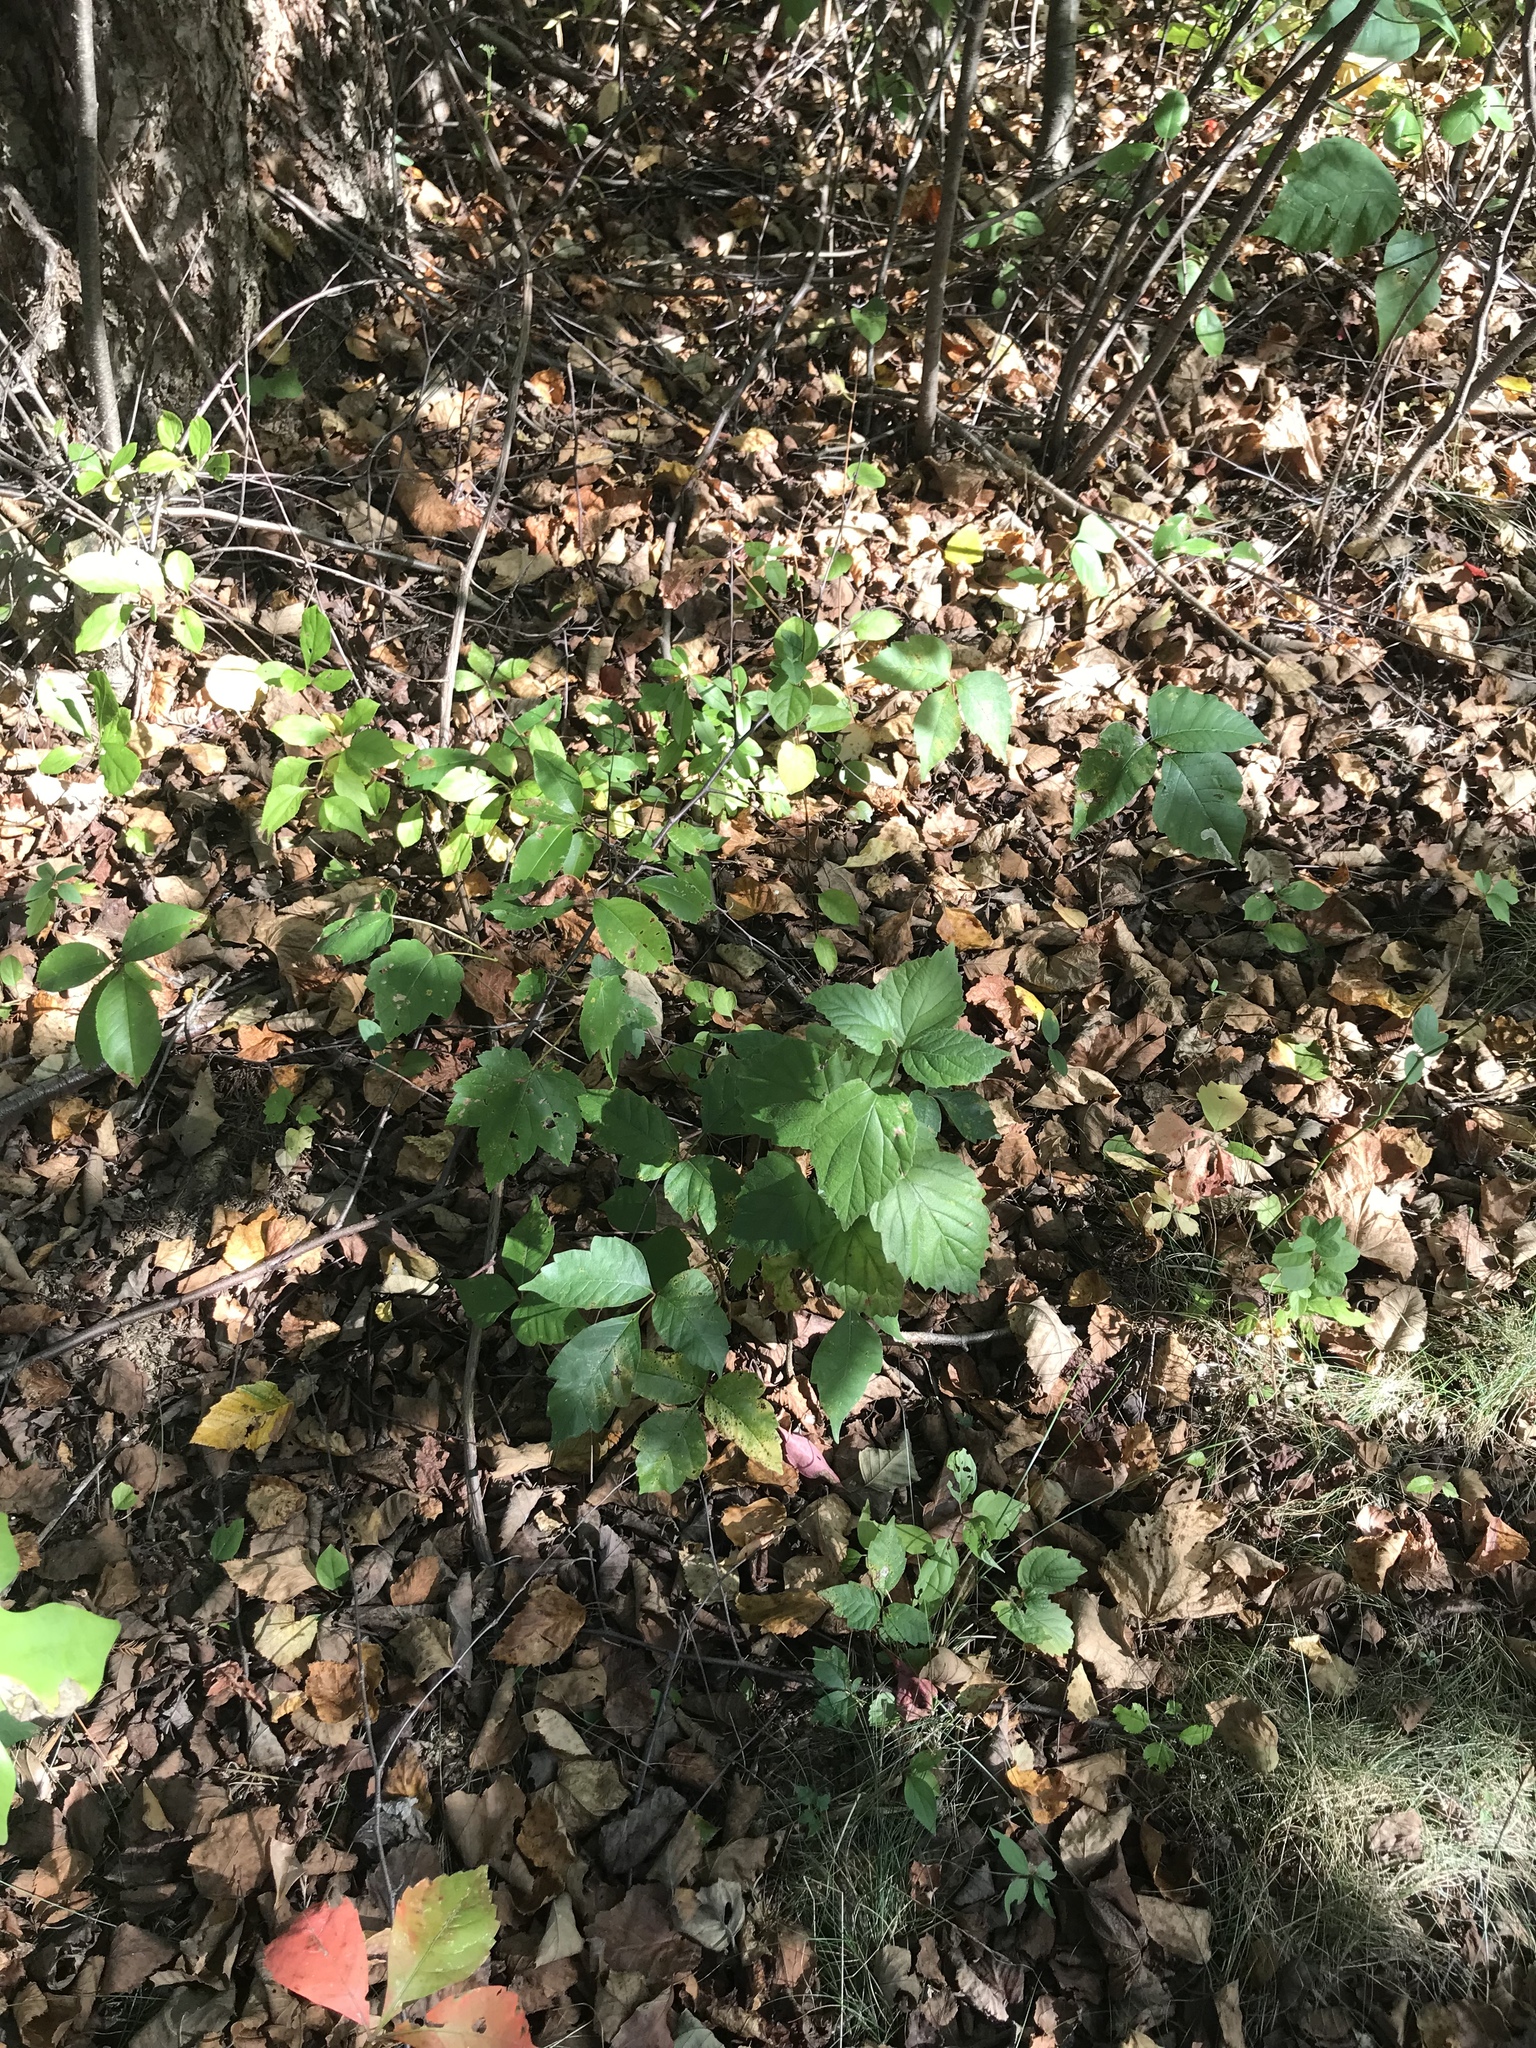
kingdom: Plantae
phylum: Tracheophyta
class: Magnoliopsida
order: Sapindales
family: Anacardiaceae
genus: Toxicodendron
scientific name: Toxicodendron radicans
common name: Poison ivy
